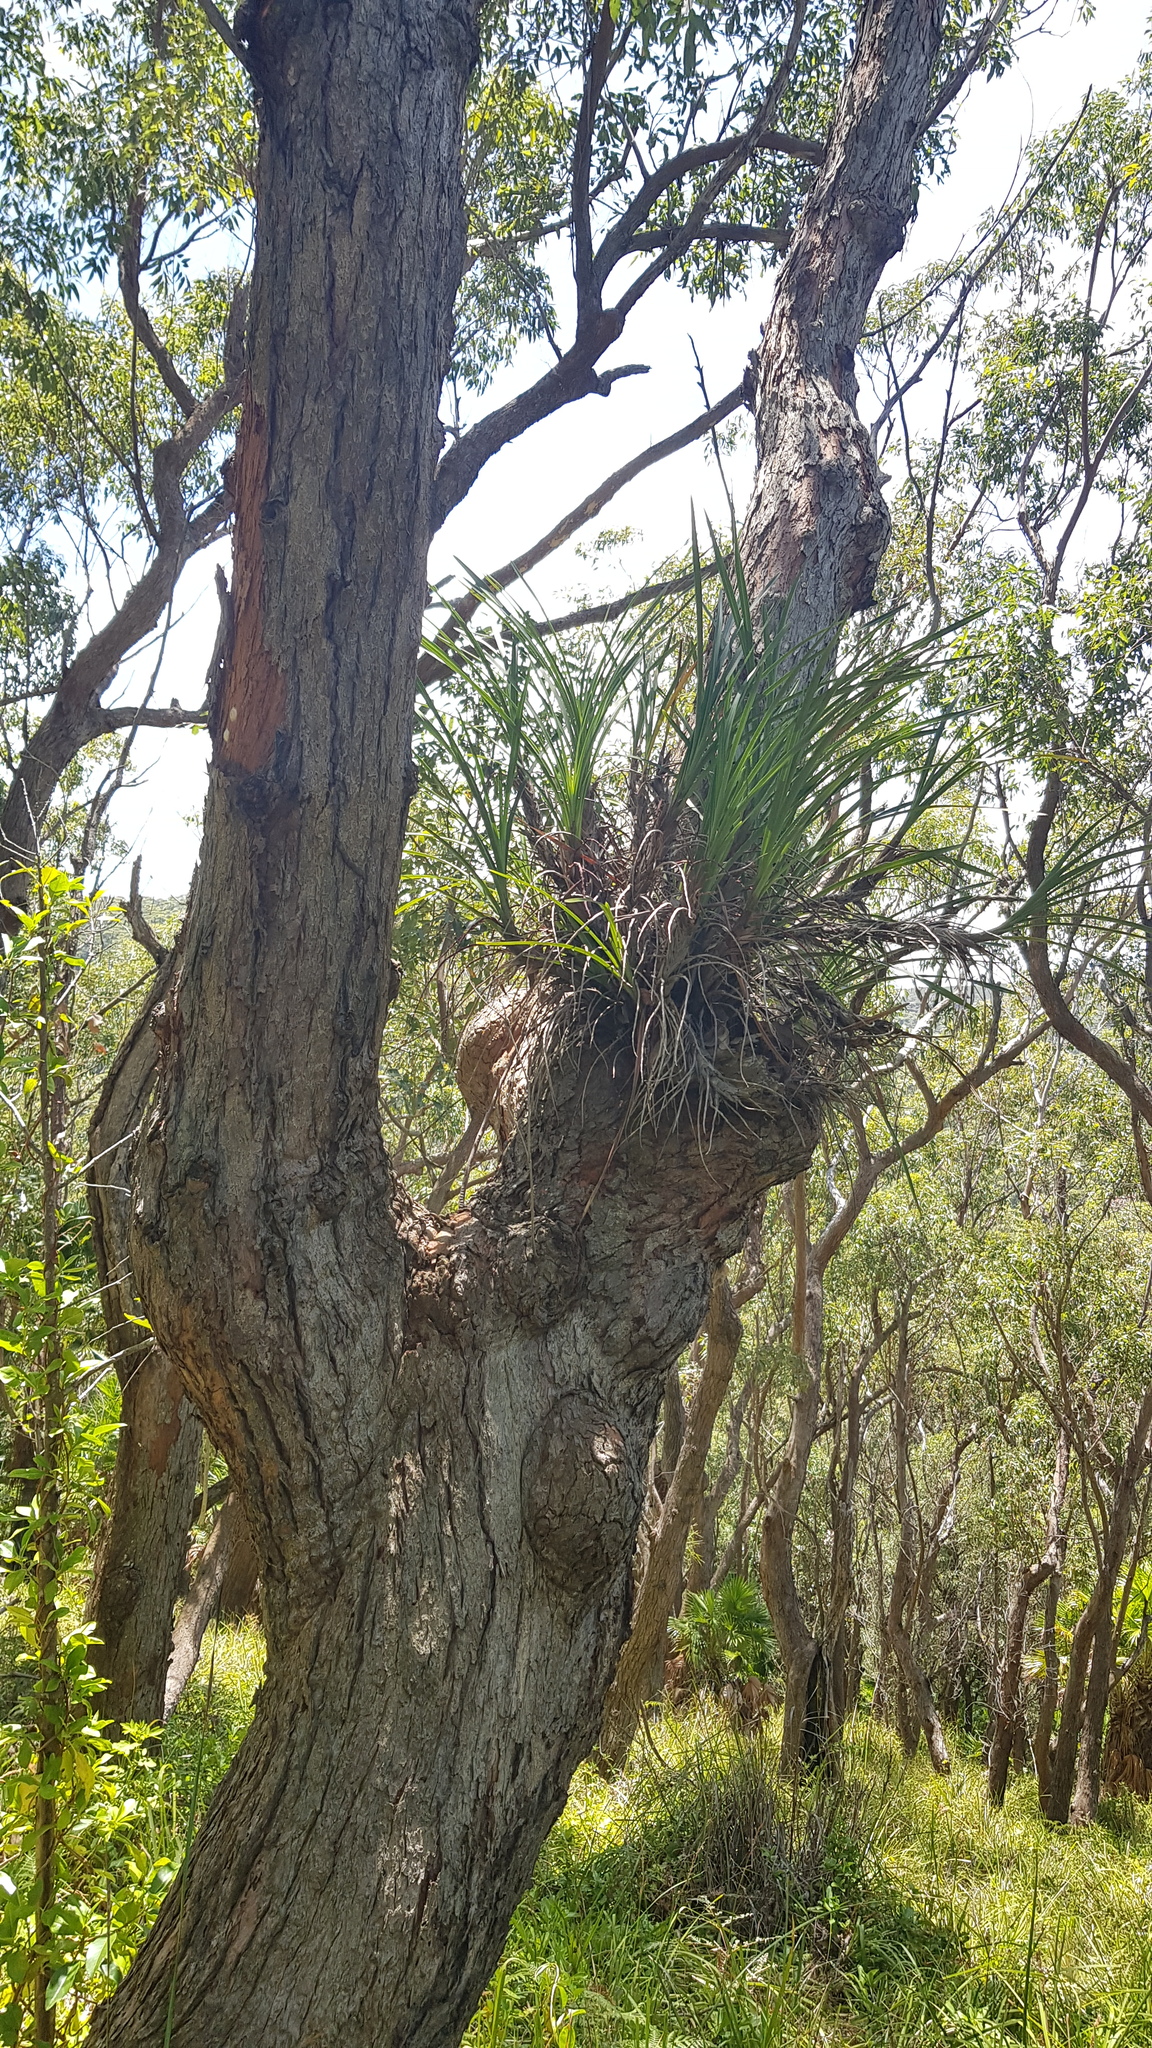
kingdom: Plantae
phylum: Tracheophyta
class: Liliopsida
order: Asparagales
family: Orchidaceae
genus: Cymbidium
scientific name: Cymbidium suave
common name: Snake orchid
